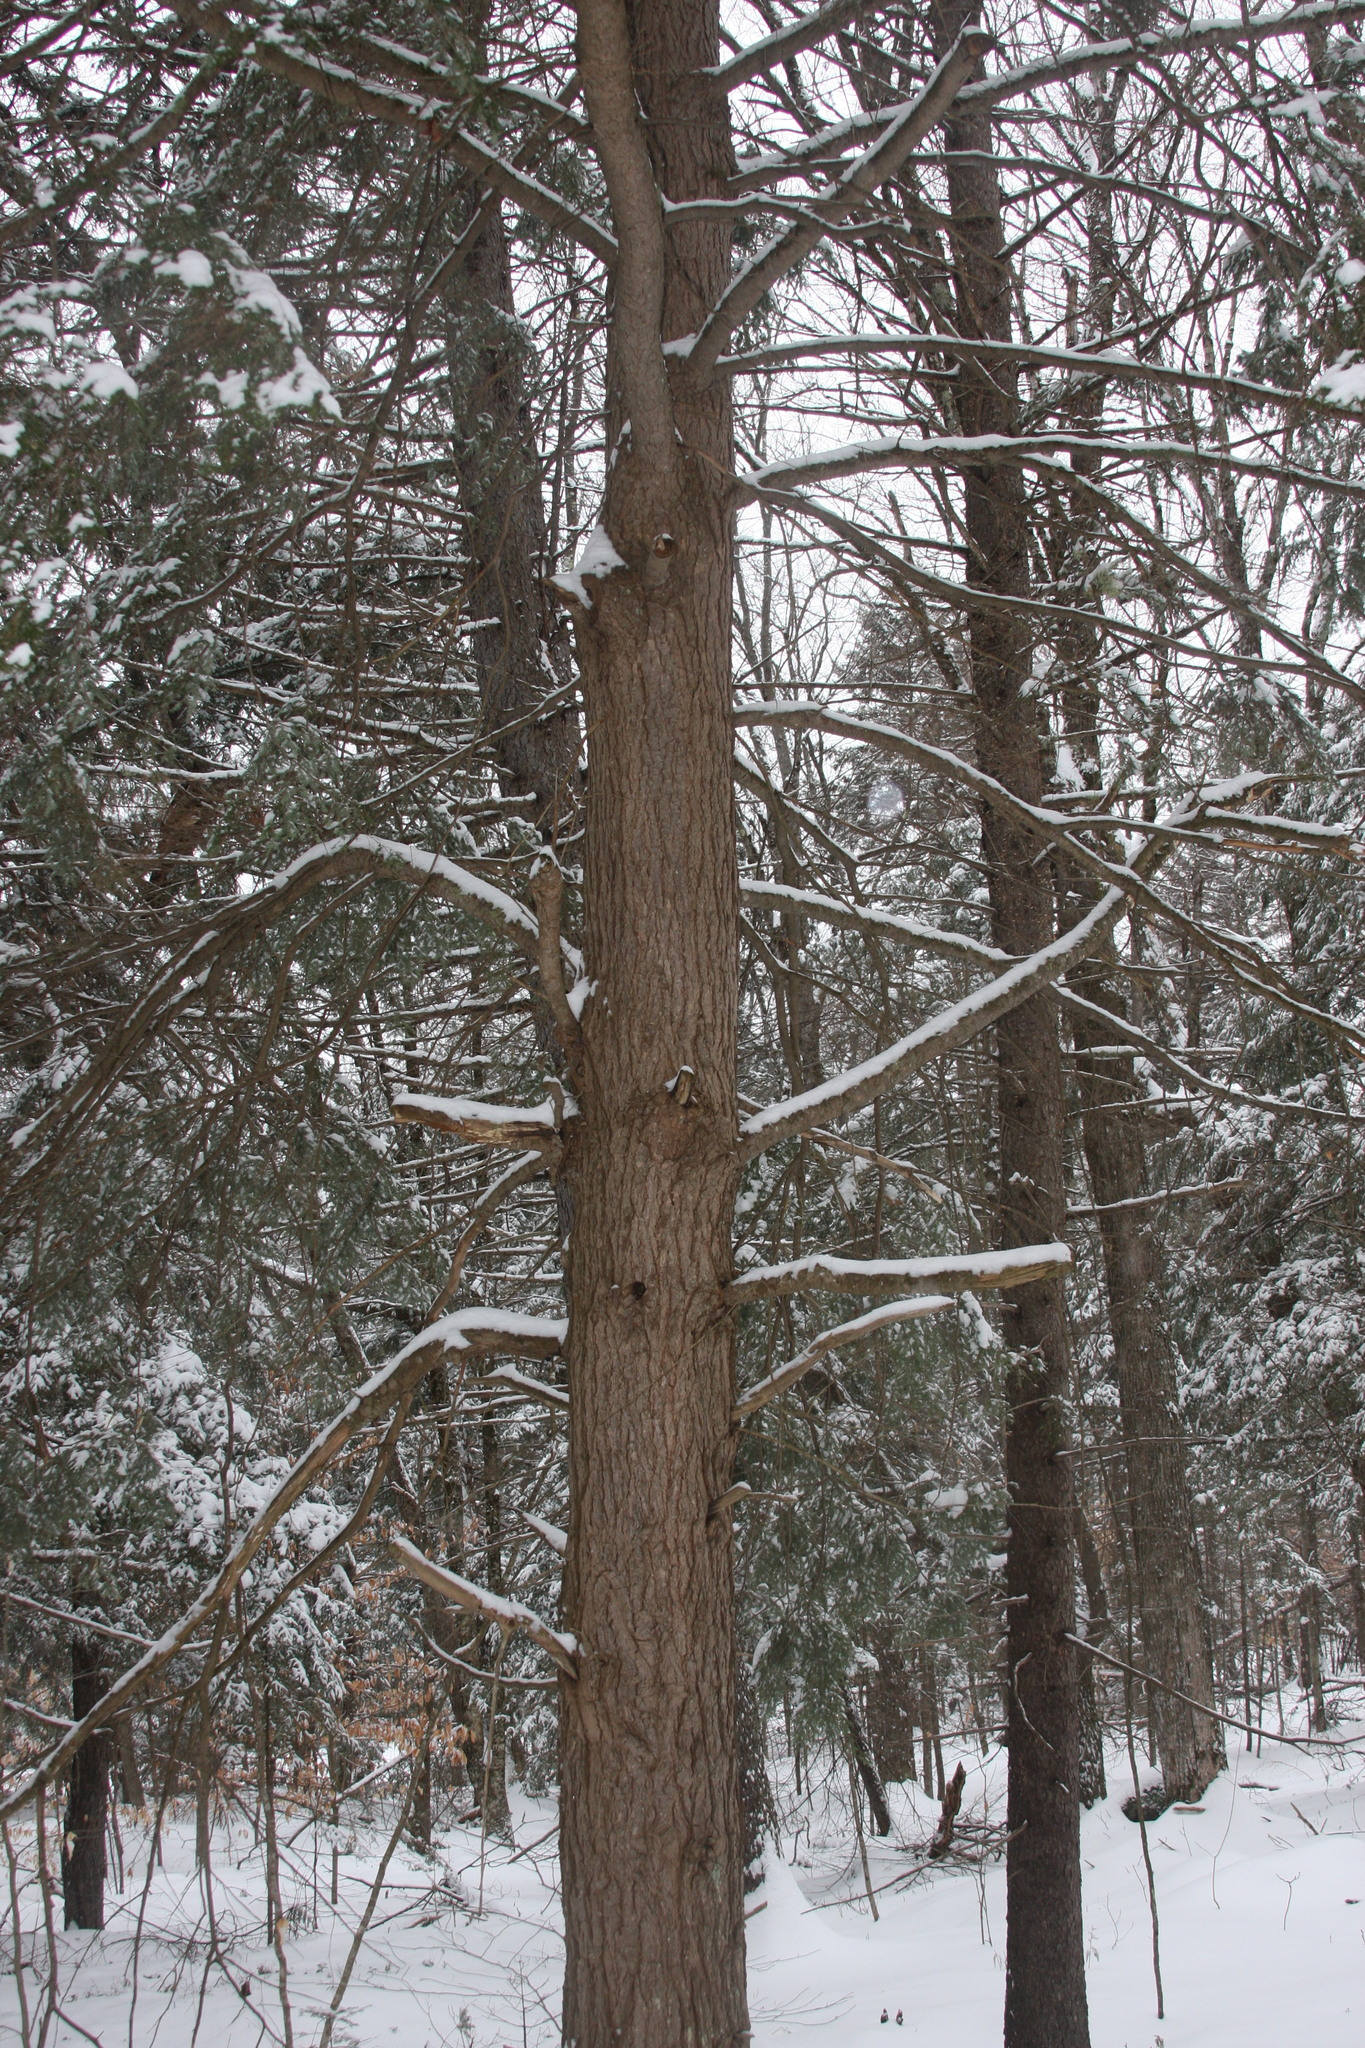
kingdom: Plantae
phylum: Tracheophyta
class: Pinopsida
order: Pinales
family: Pinaceae
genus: Tsuga
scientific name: Tsuga canadensis
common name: Eastern hemlock
